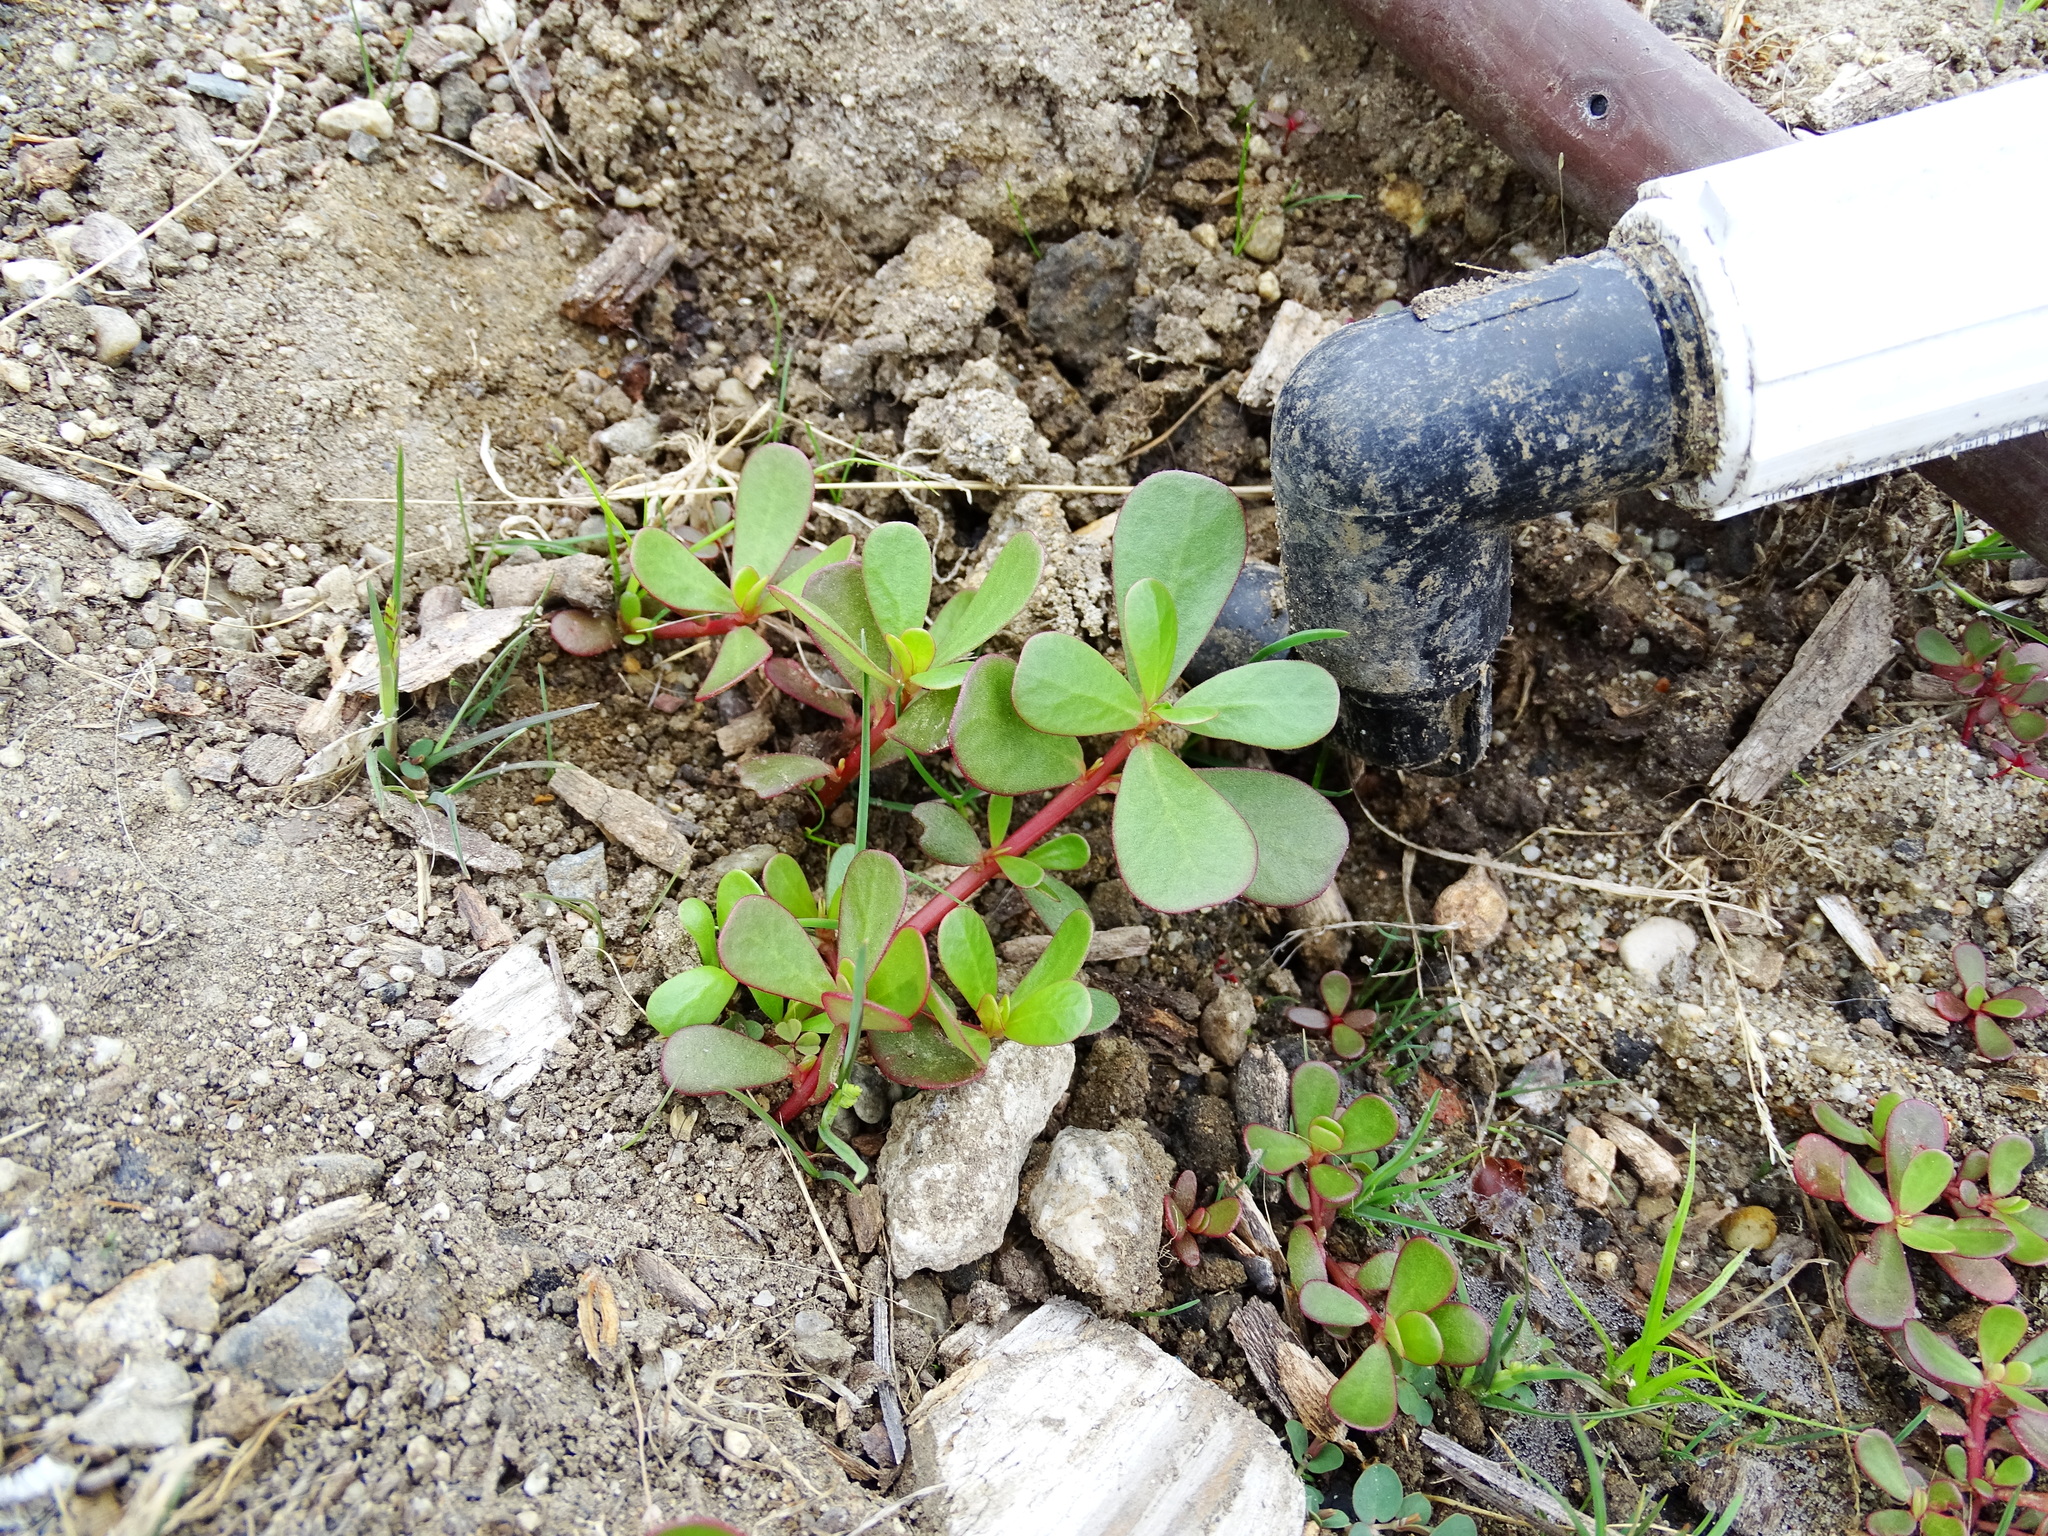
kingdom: Plantae
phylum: Tracheophyta
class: Magnoliopsida
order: Caryophyllales
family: Portulacaceae
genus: Portulaca
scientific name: Portulaca oleracea
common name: Common purslane
